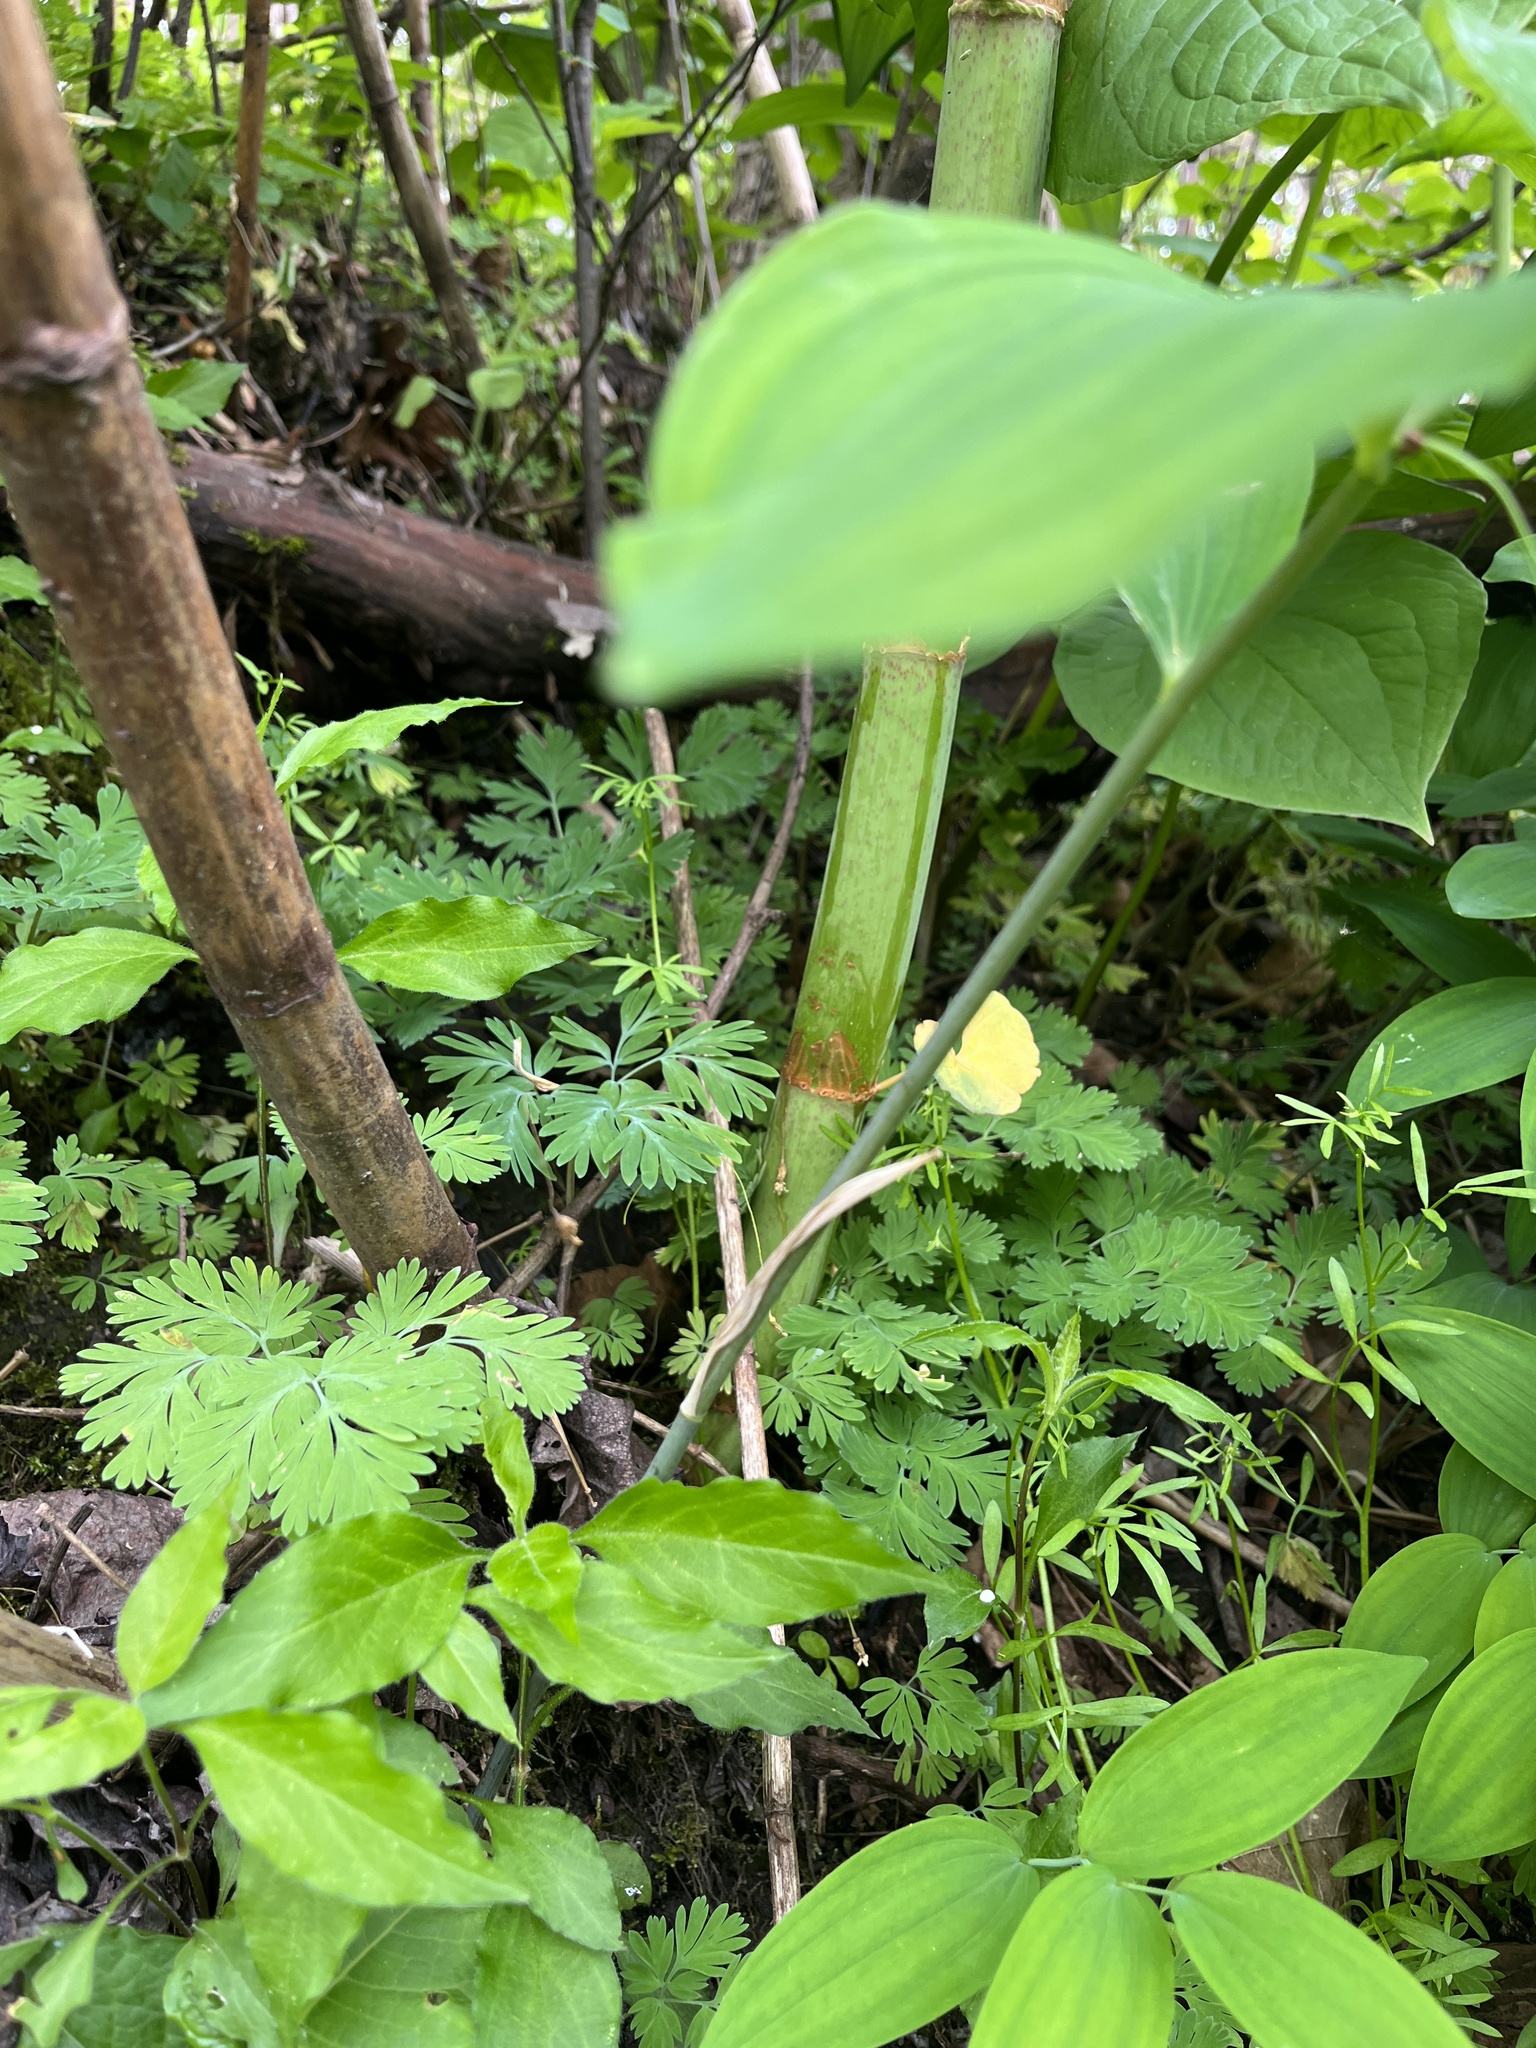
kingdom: Plantae
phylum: Tracheophyta
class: Liliopsida
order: Asparagales
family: Asparagaceae
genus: Polygonatum
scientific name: Polygonatum pubescens
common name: Downy solomon's seal
